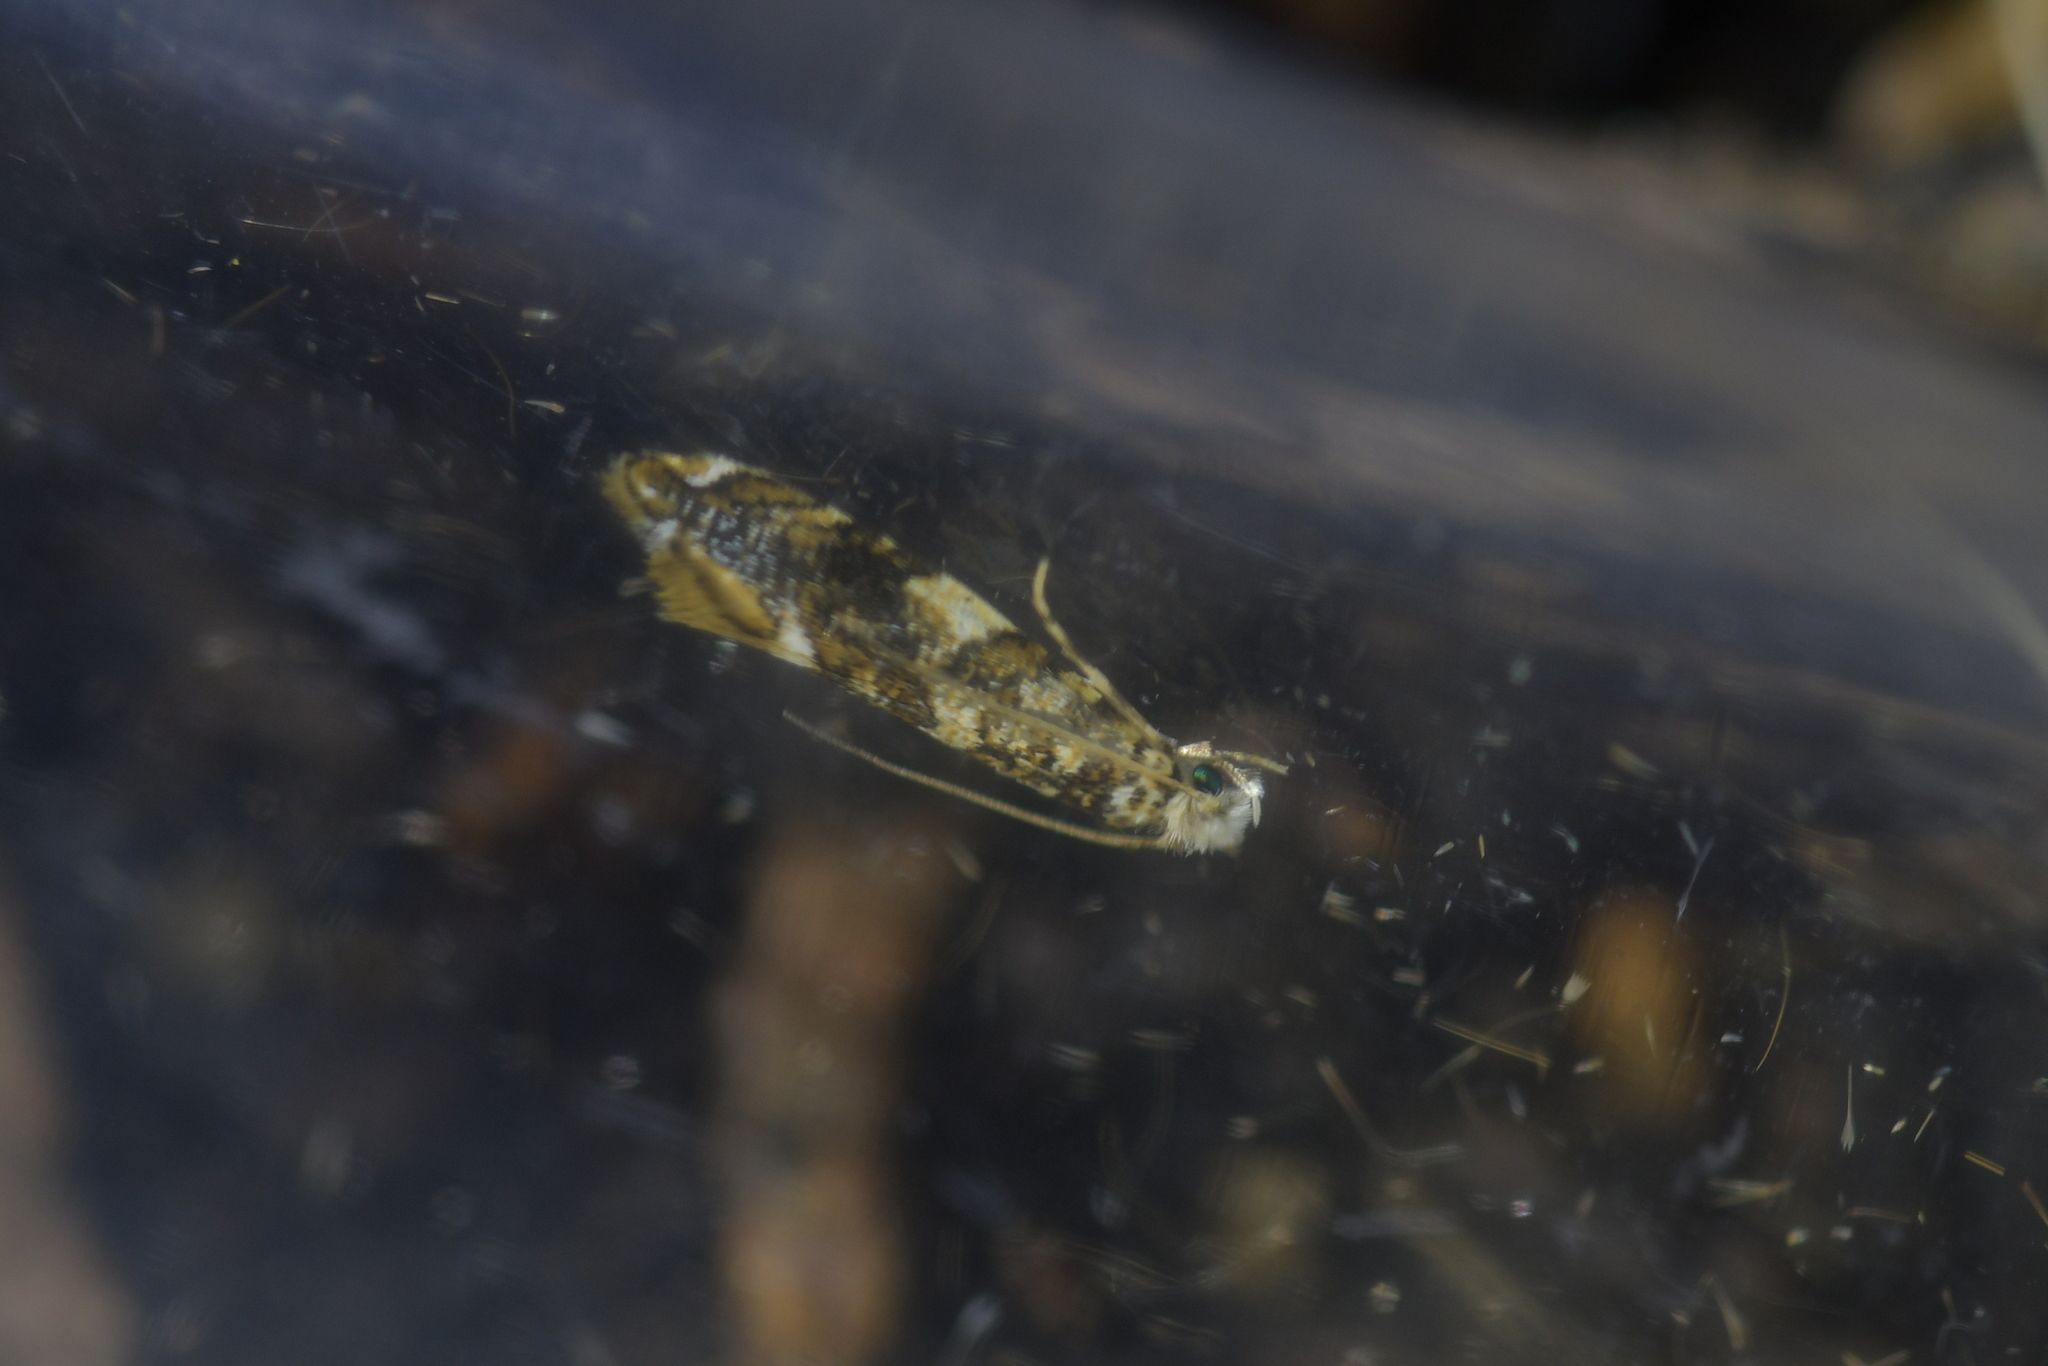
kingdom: Animalia
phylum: Arthropoda
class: Insecta
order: Lepidoptera
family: Tineidae
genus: Eschatotypa
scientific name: Eschatotypa derogatella
